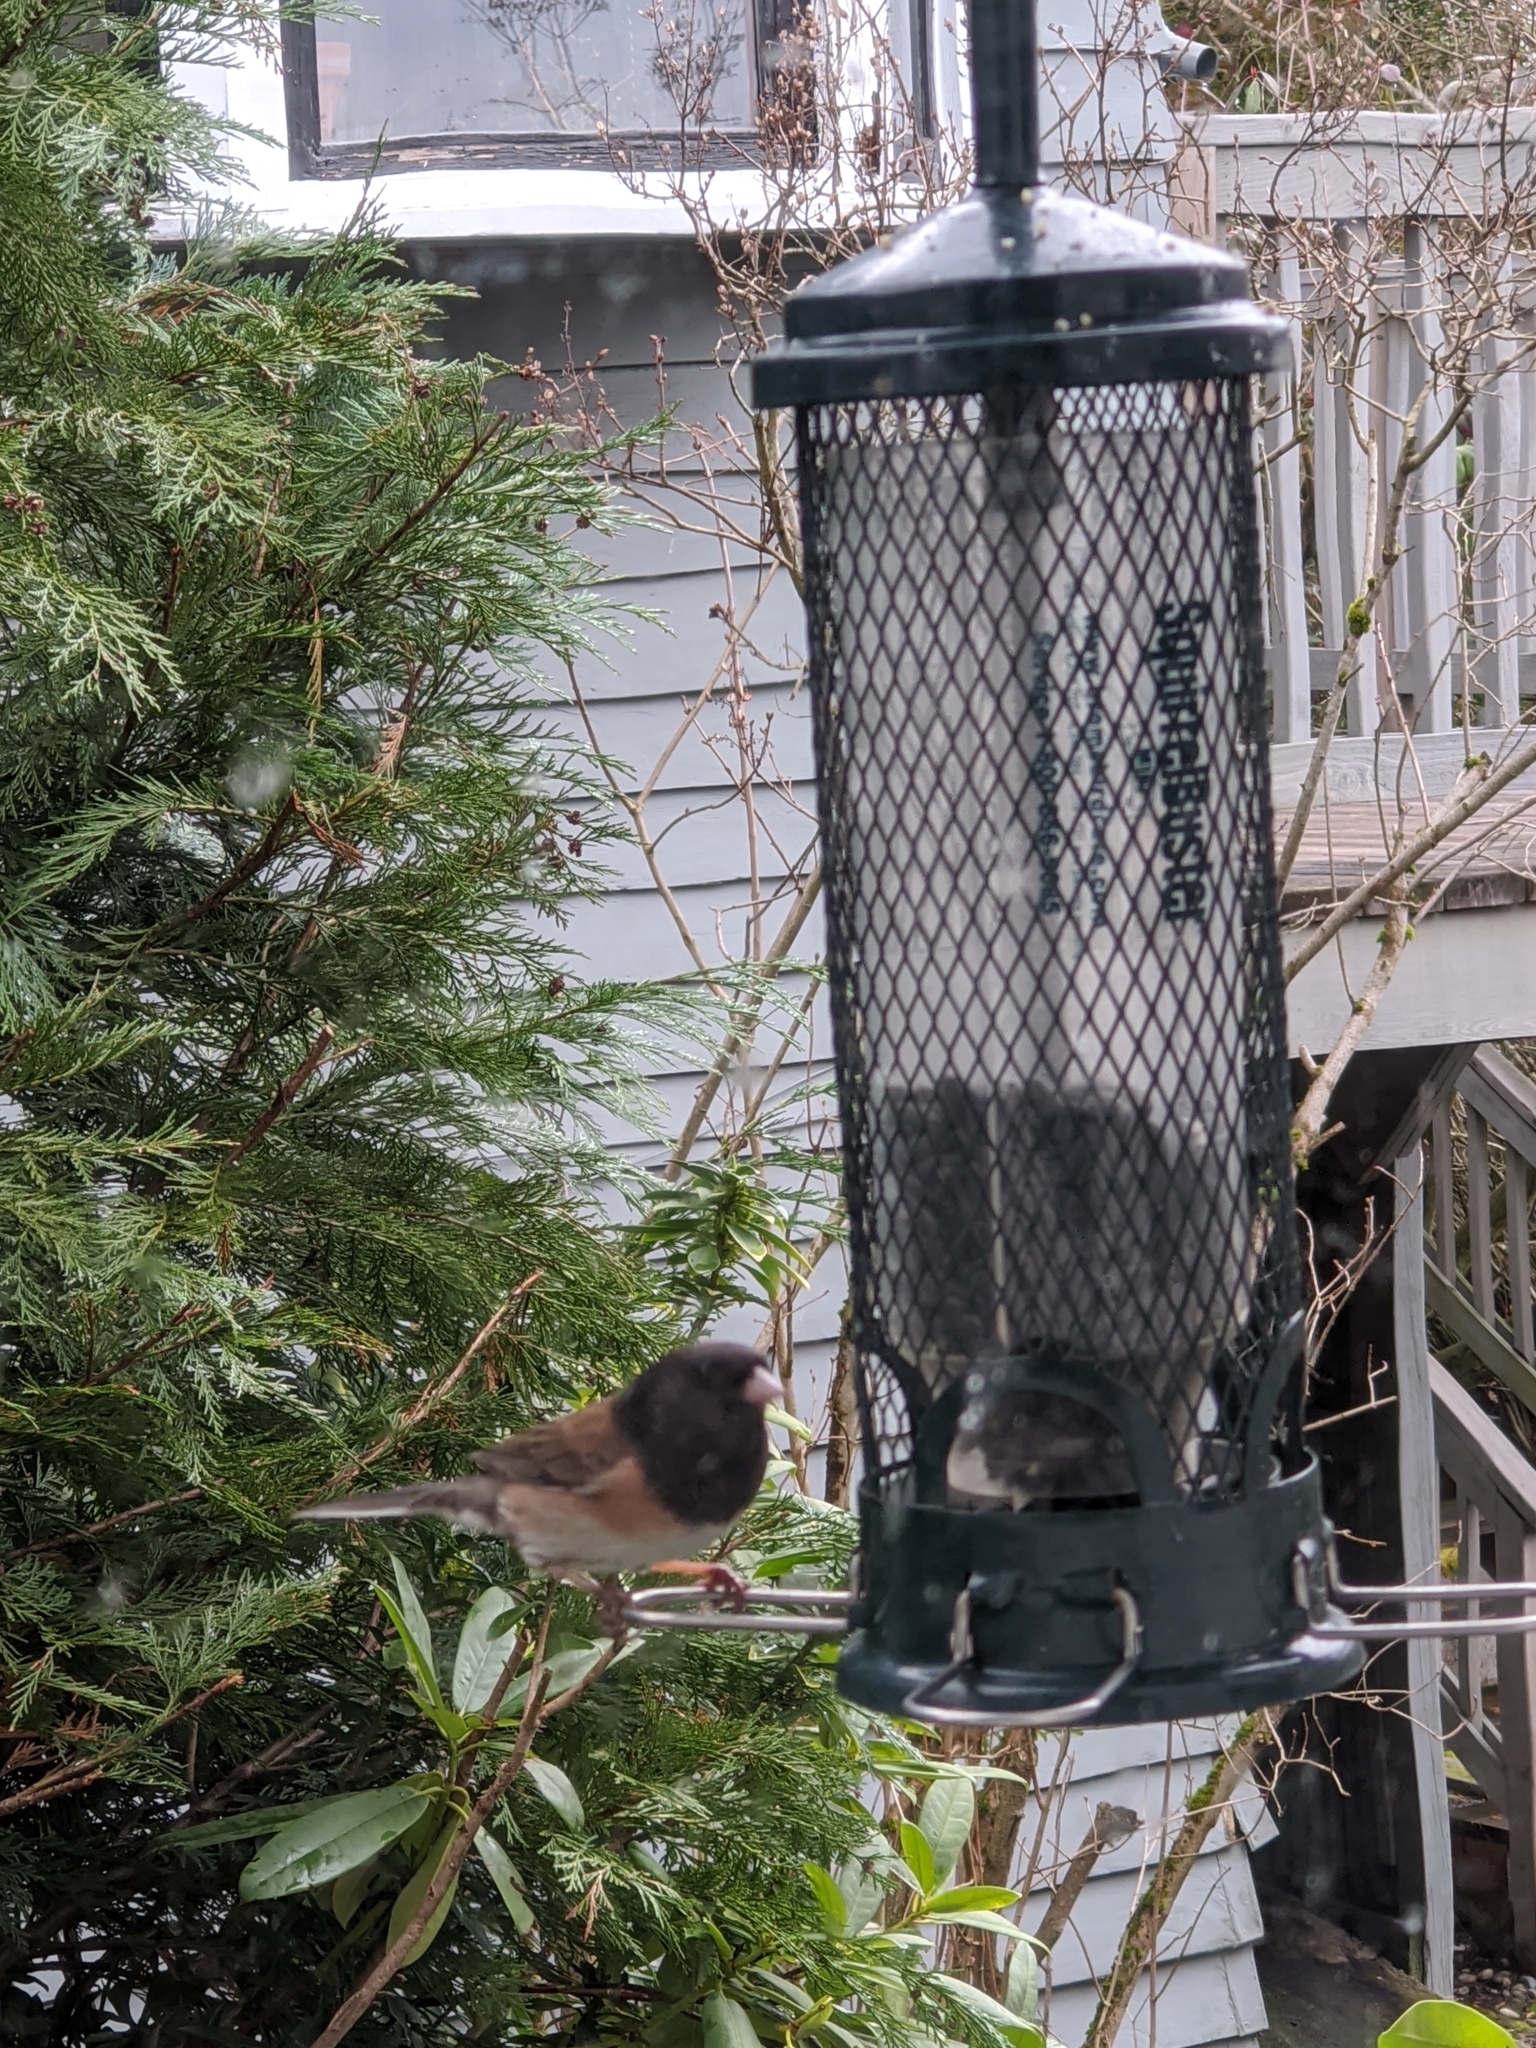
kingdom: Animalia
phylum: Chordata
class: Aves
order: Passeriformes
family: Passerellidae
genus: Junco
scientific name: Junco hyemalis
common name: Dark-eyed junco
